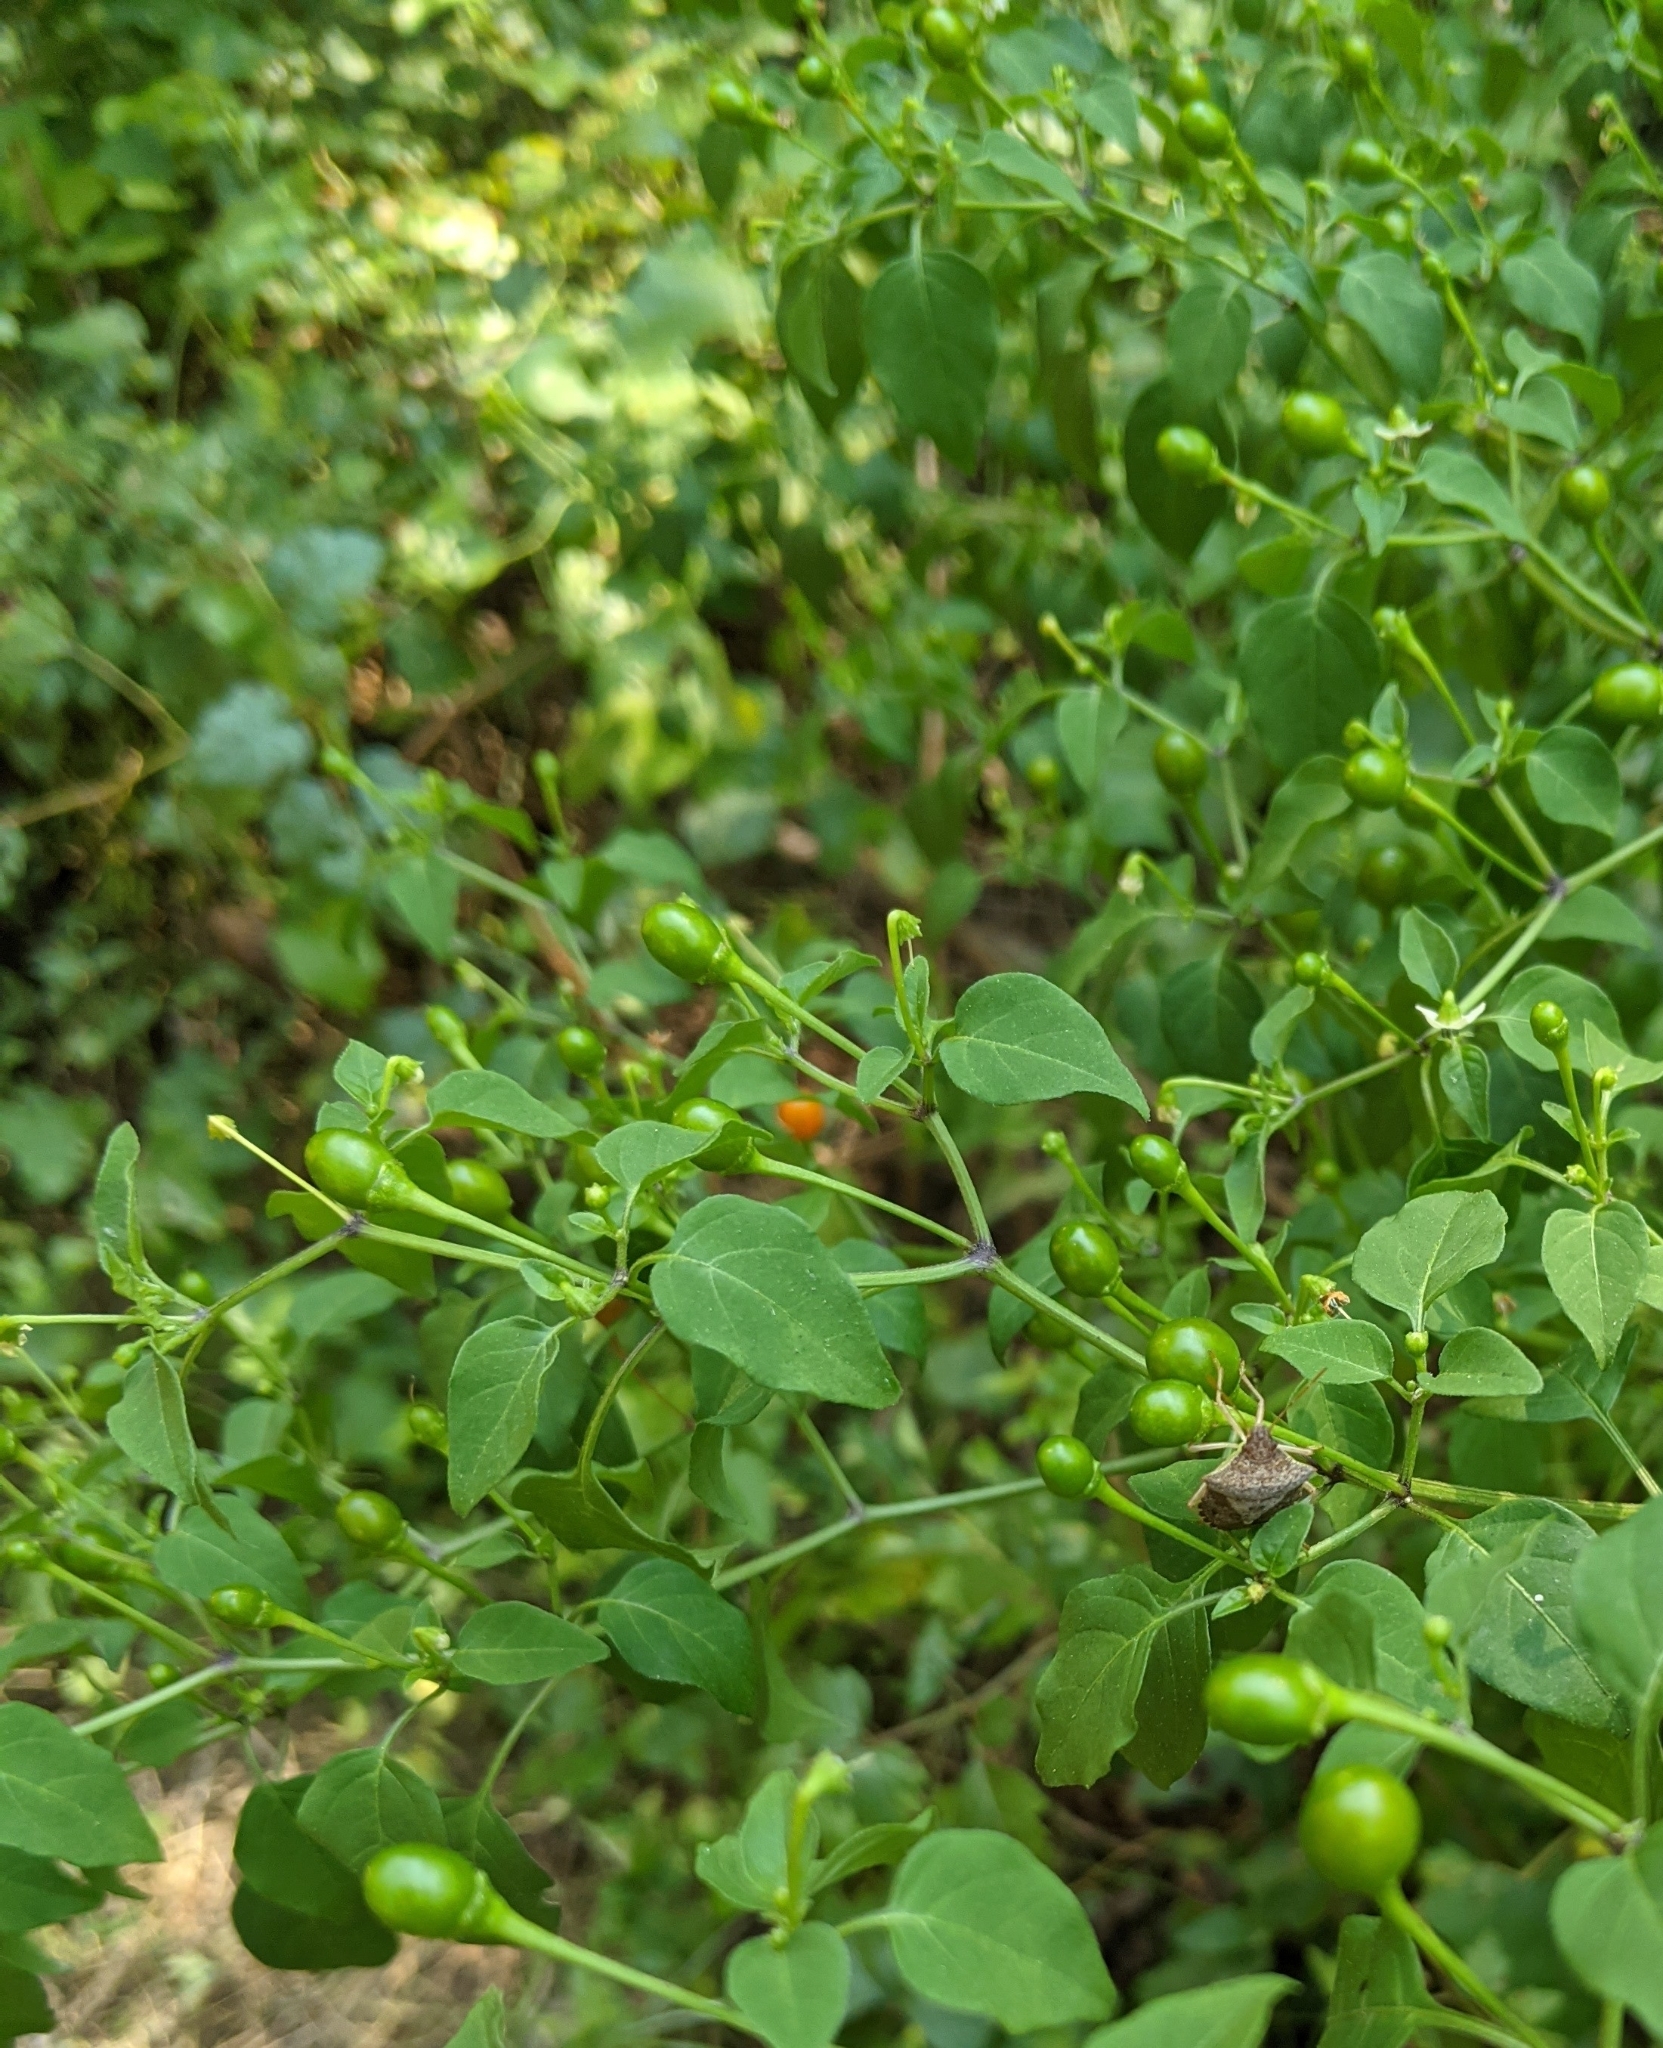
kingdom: Plantae
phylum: Tracheophyta
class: Magnoliopsida
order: Solanales
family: Solanaceae
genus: Capsicum
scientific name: Capsicum annuum
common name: Sweet pepper
